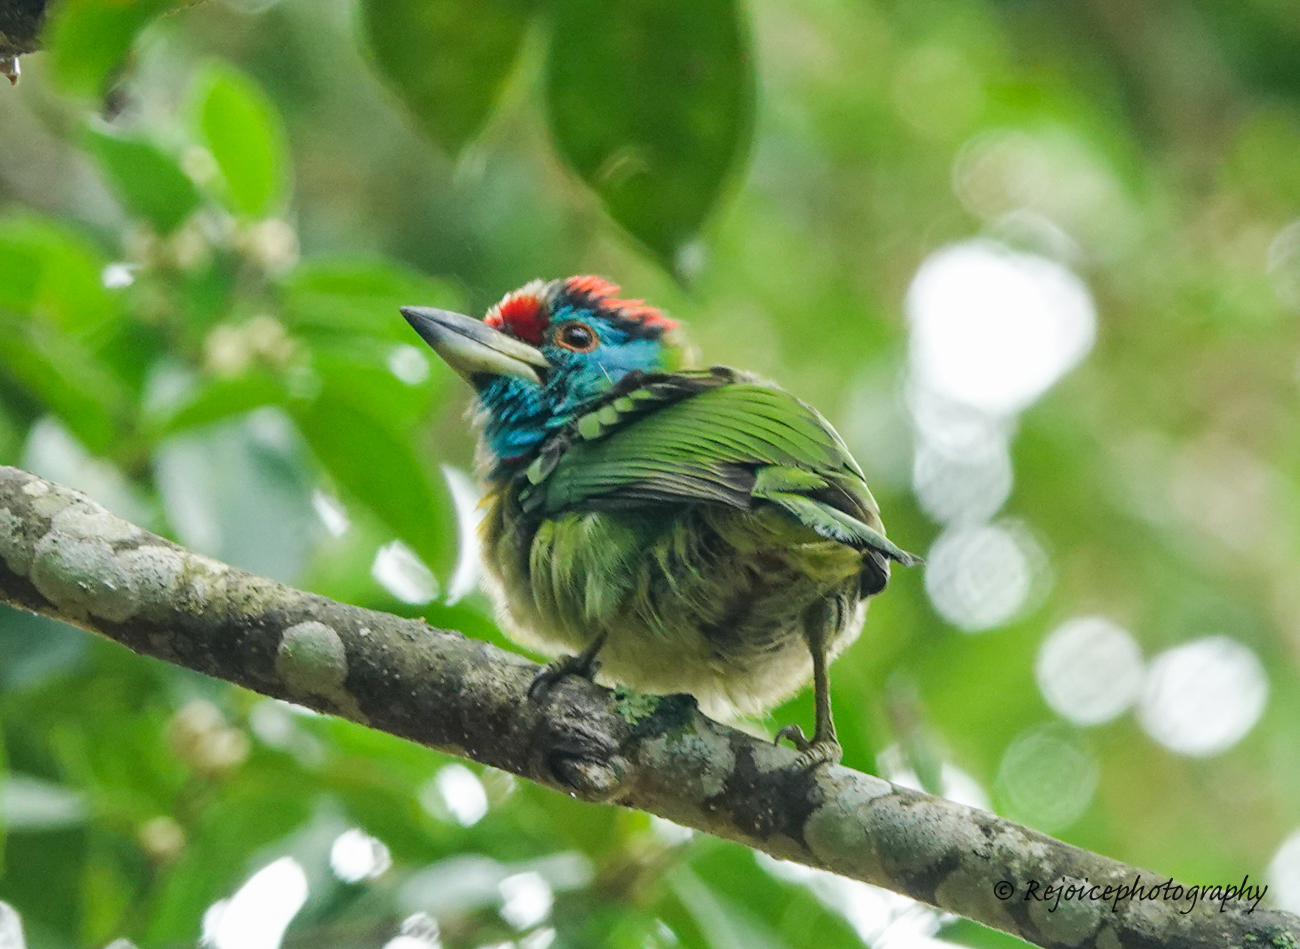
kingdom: Animalia
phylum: Chordata
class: Aves
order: Piciformes
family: Megalaimidae
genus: Psilopogon
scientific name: Psilopogon asiaticus
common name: Blue-throated barbet
